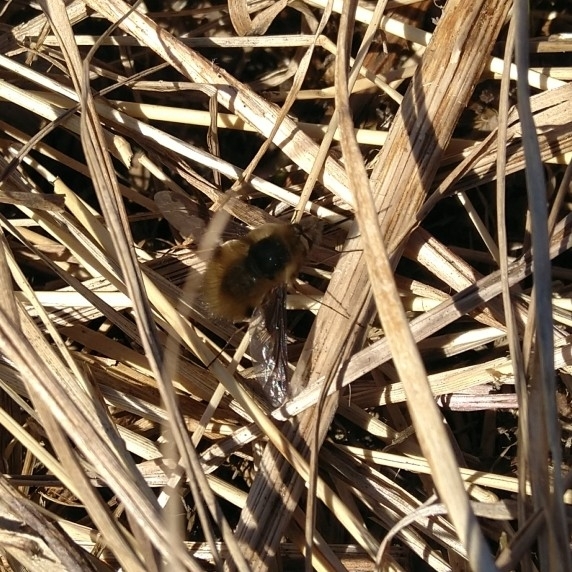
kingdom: Animalia
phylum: Arthropoda
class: Insecta
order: Diptera
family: Bombyliidae
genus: Bombylius
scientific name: Bombylius major
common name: Bee fly
